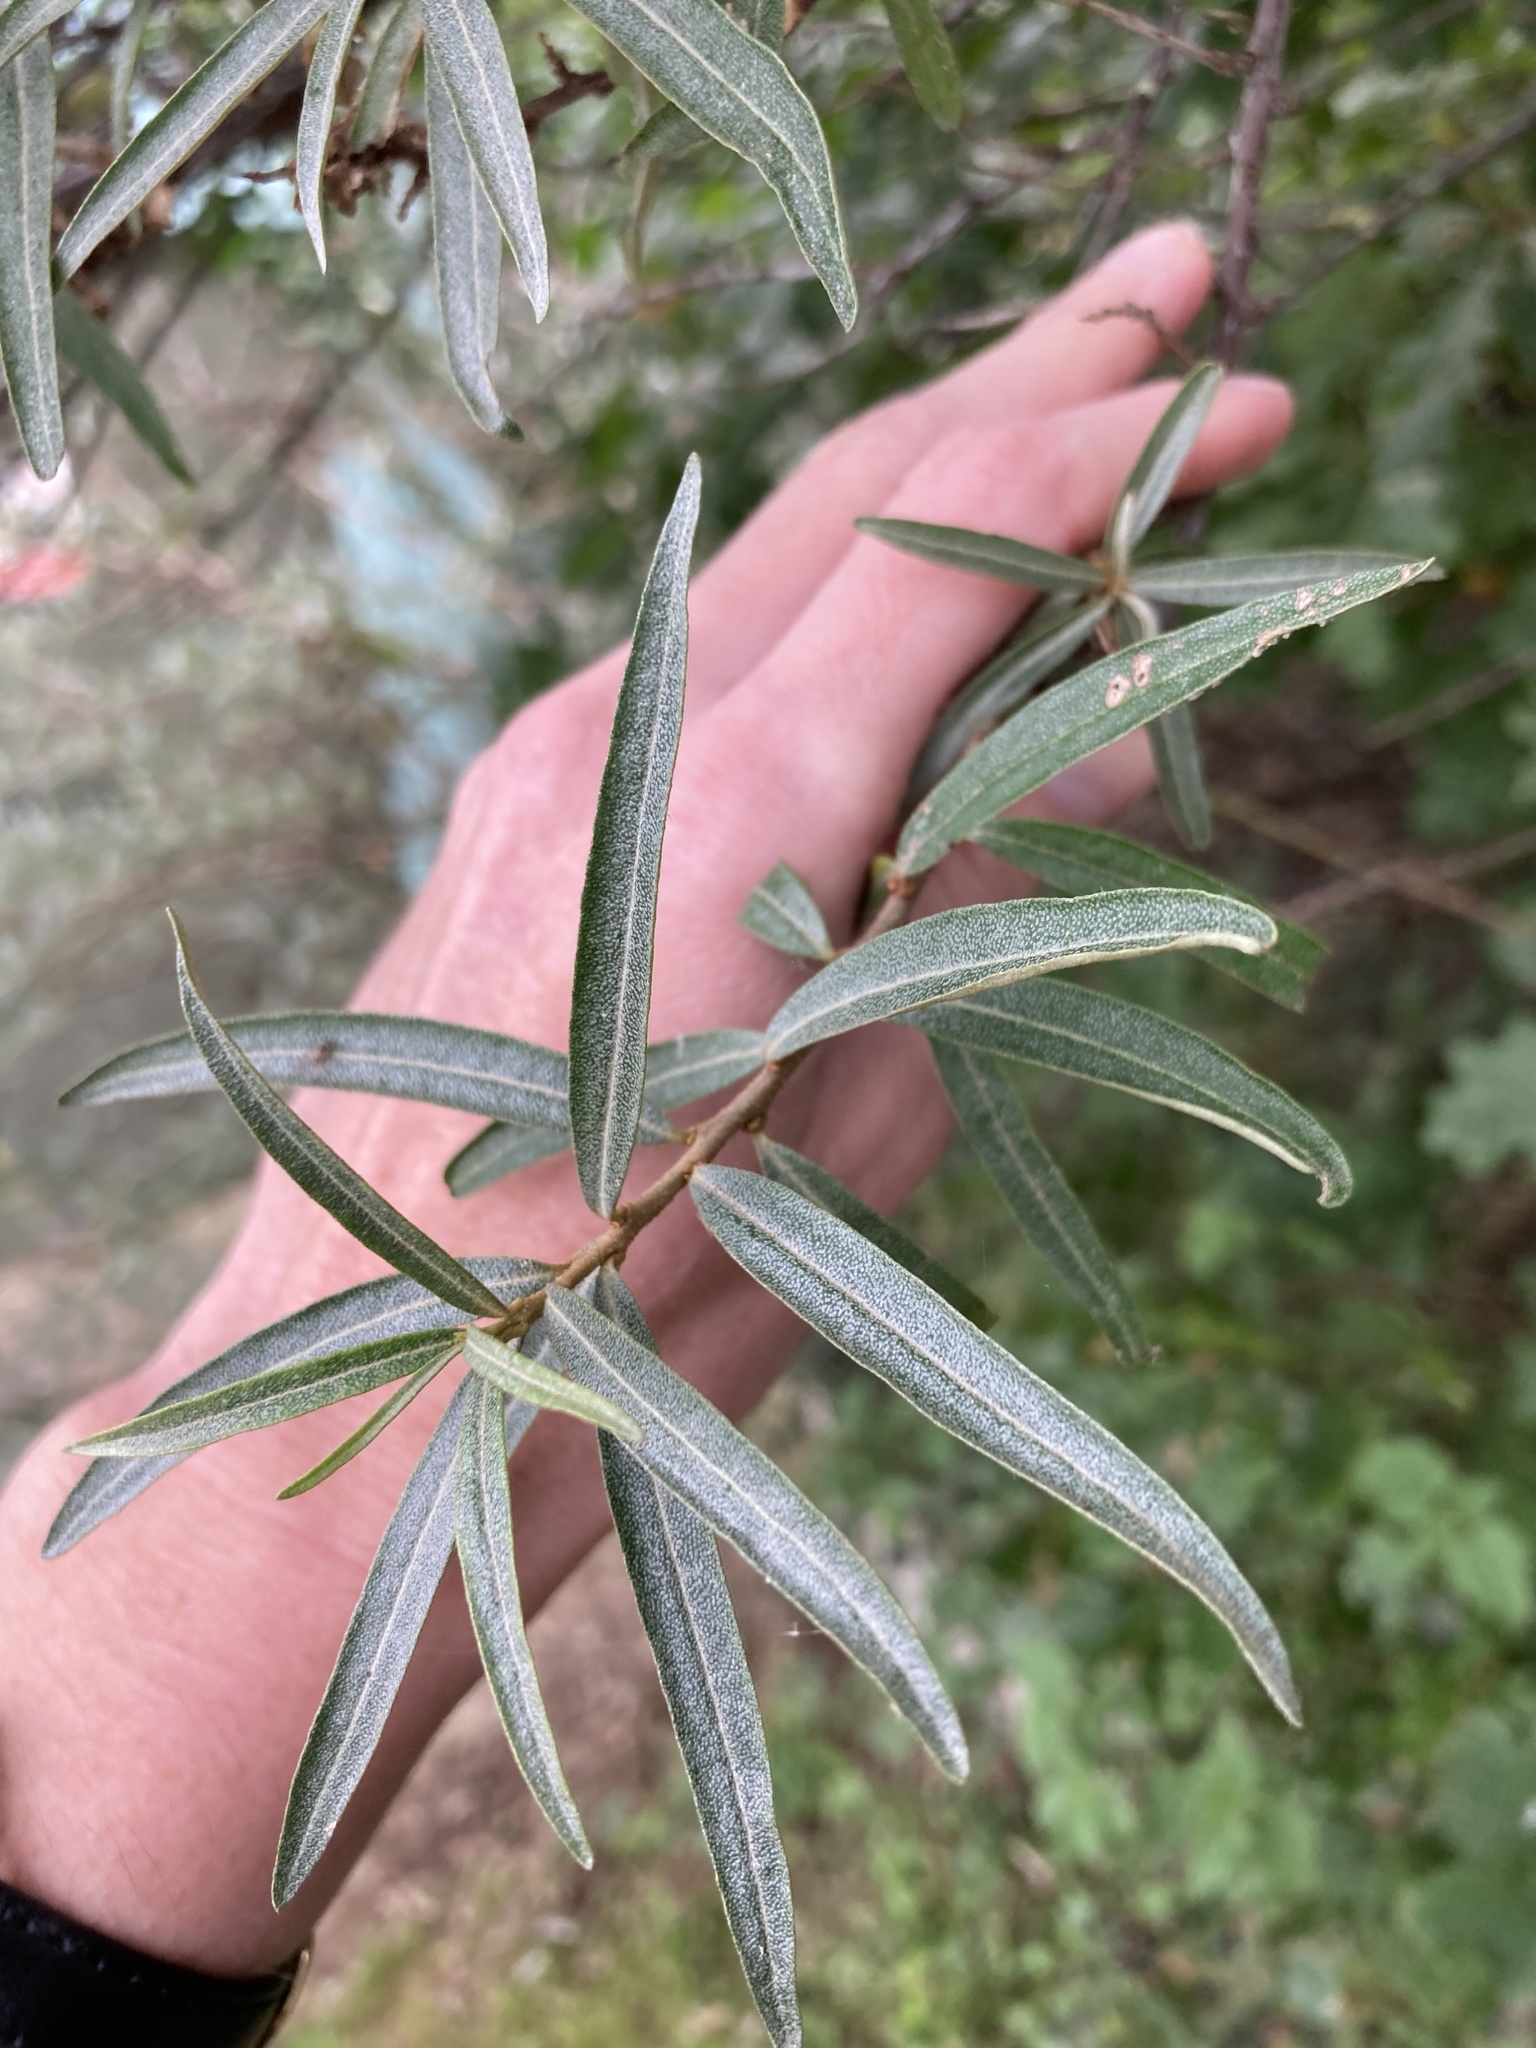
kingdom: Plantae
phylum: Tracheophyta
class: Magnoliopsida
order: Rosales
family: Elaeagnaceae
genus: Hippophae
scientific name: Hippophae rhamnoides
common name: Sea-buckthorn
